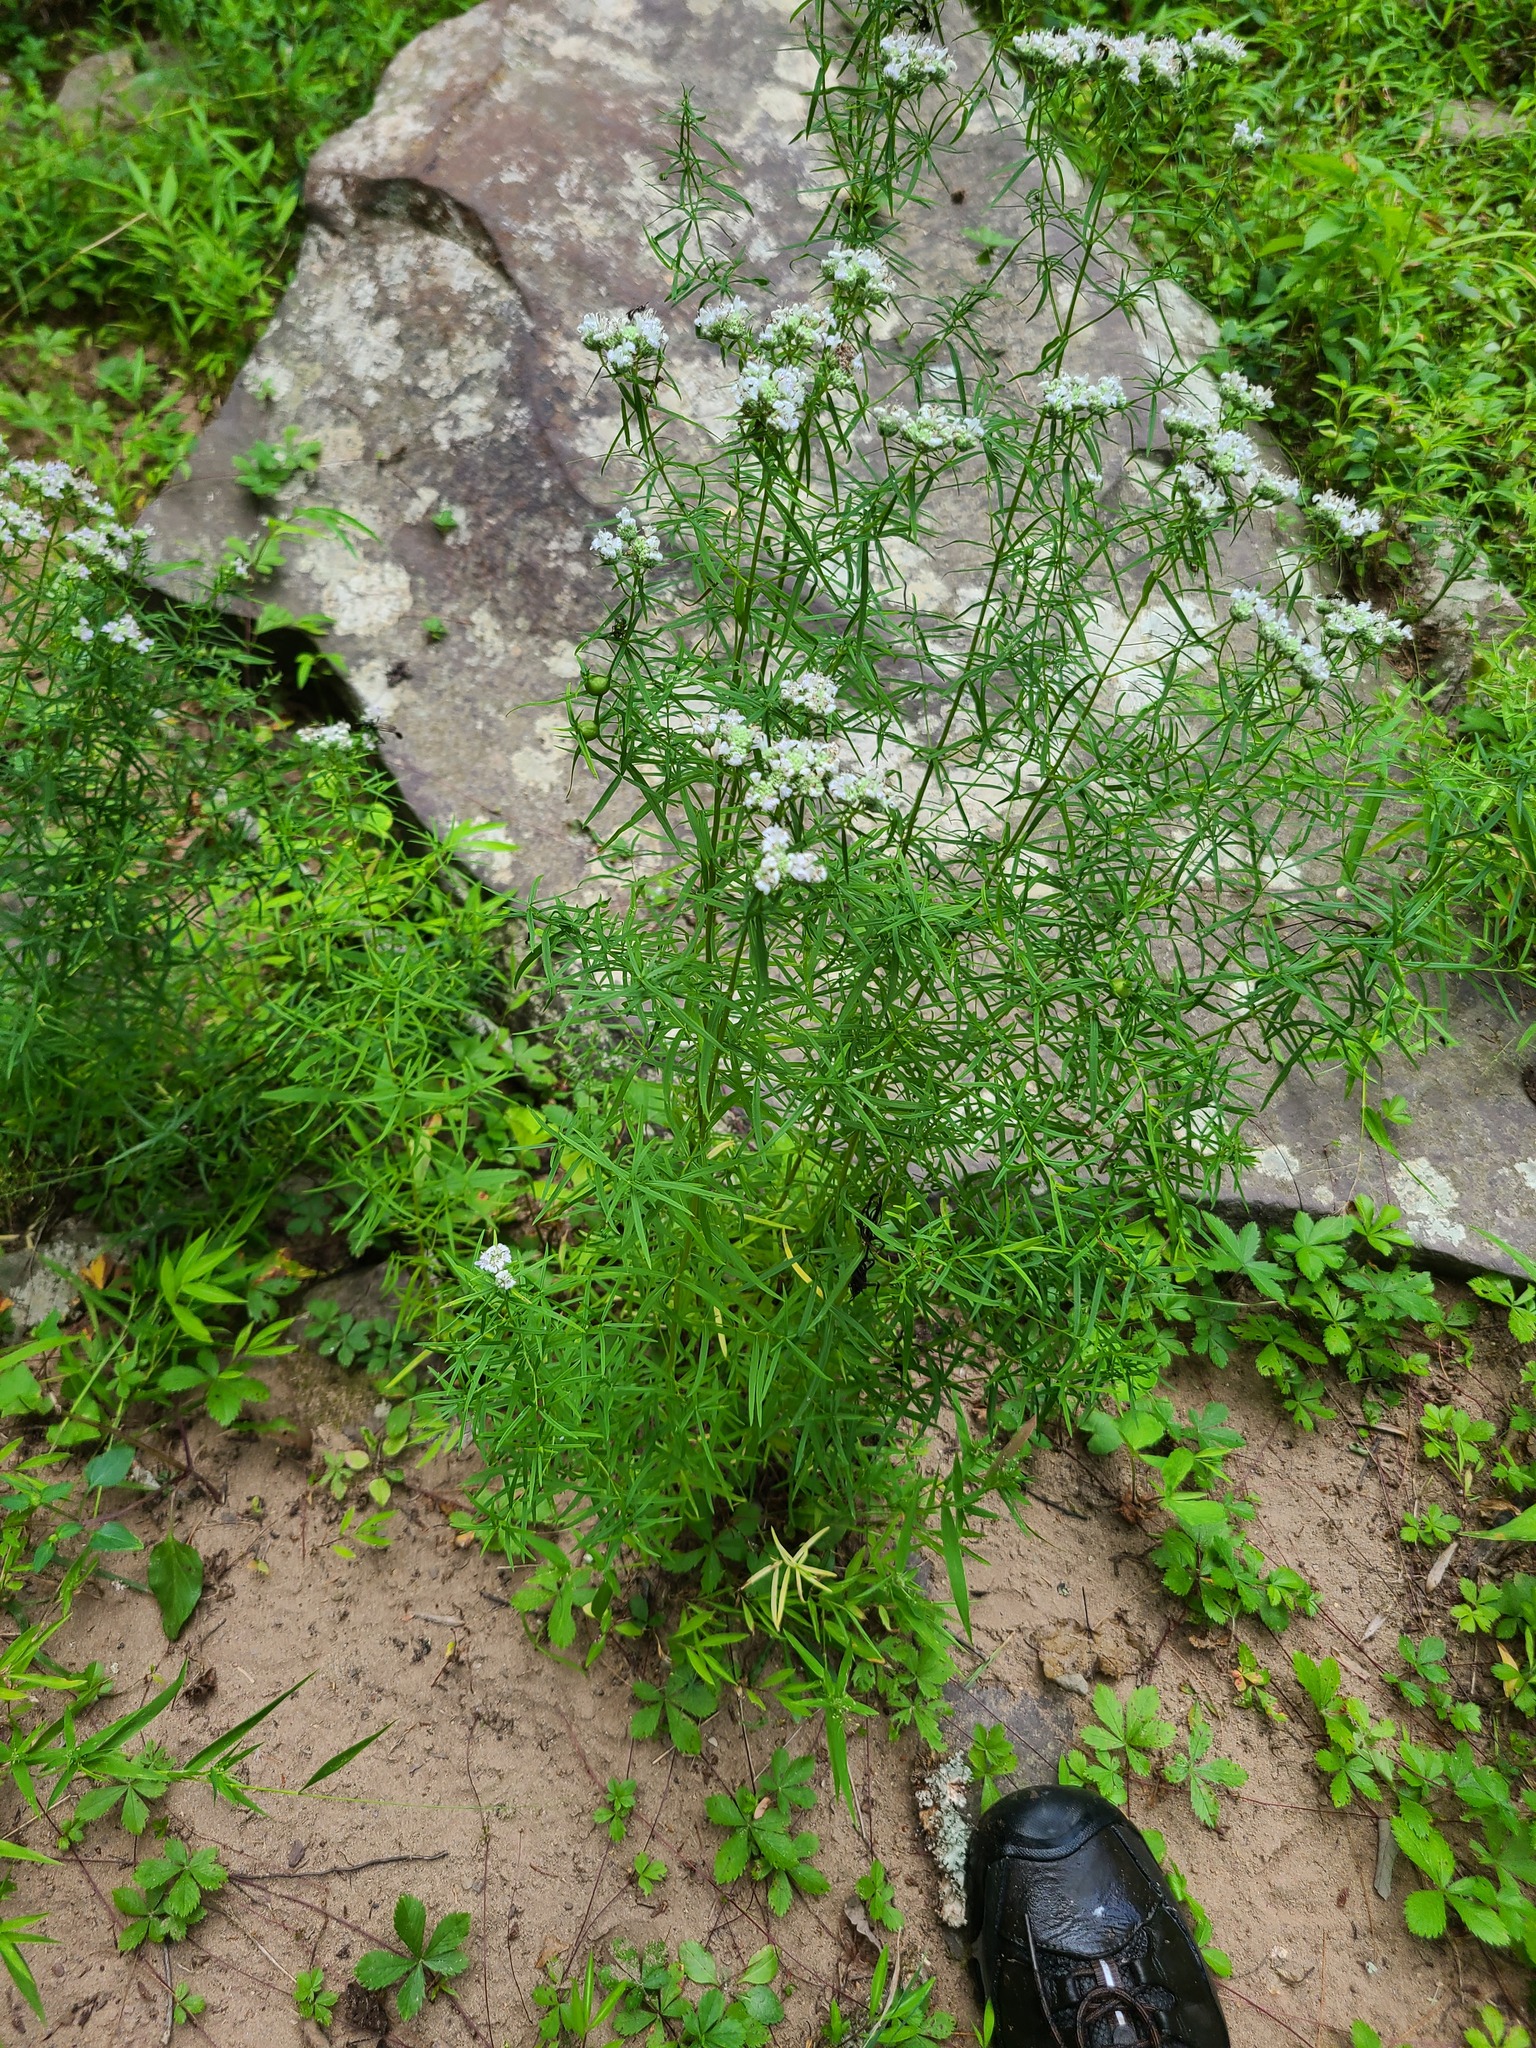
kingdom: Plantae
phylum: Tracheophyta
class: Magnoliopsida
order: Lamiales
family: Lamiaceae
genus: Pycnanthemum
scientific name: Pycnanthemum tenuifolium
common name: Narrow-leaf mountain-mint
